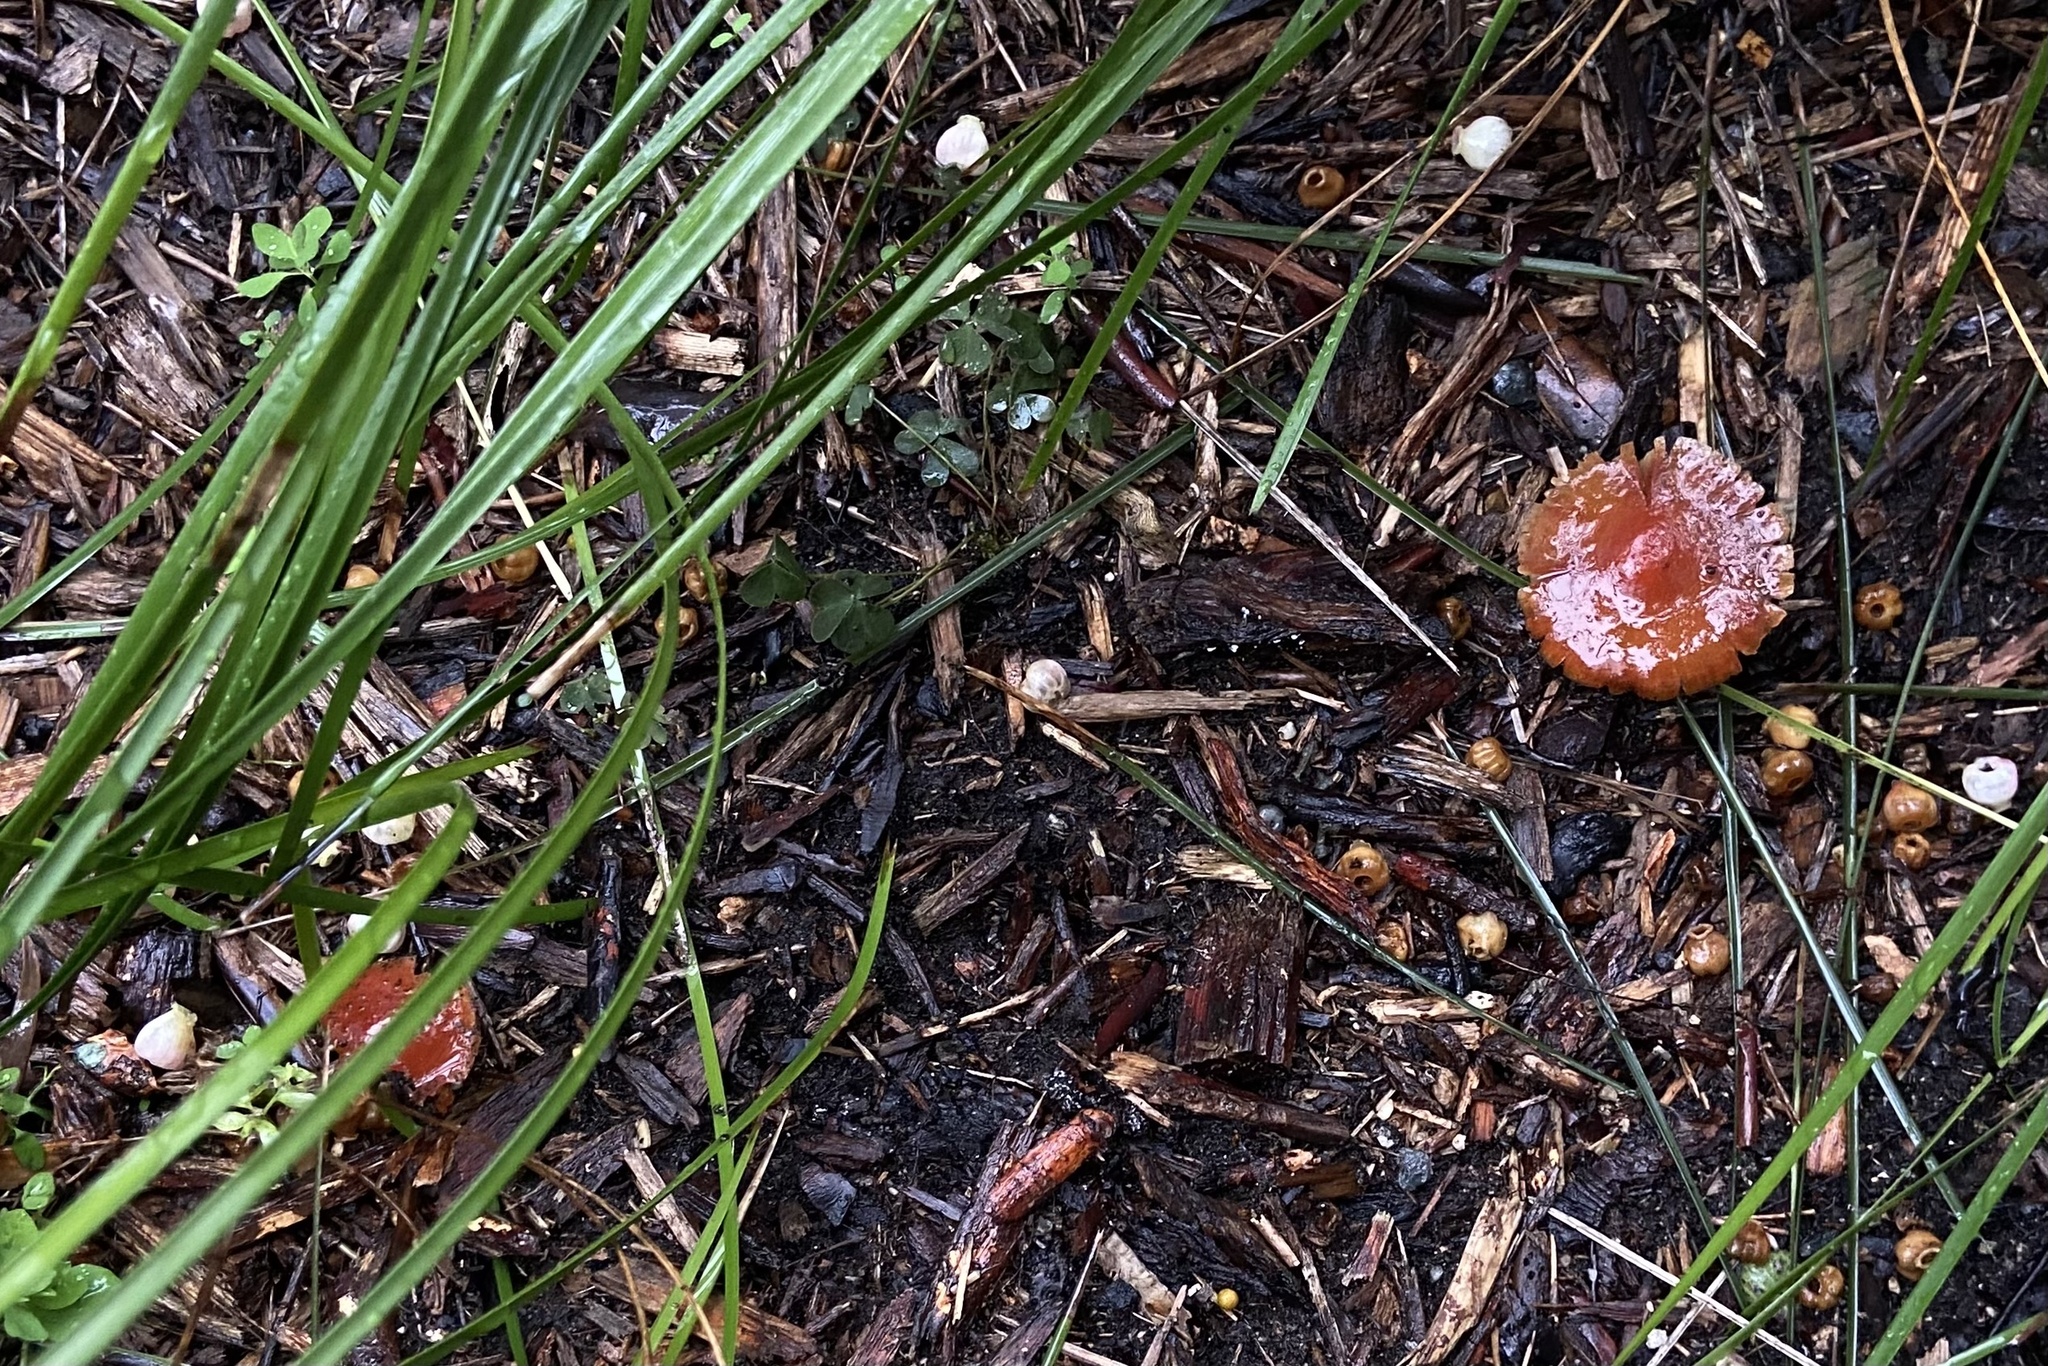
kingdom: Fungi
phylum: Basidiomycota
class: Agaricomycetes
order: Agaricales
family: Strophariaceae
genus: Leratiomyces
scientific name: Leratiomyces ceres
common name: Redlead roundhead
